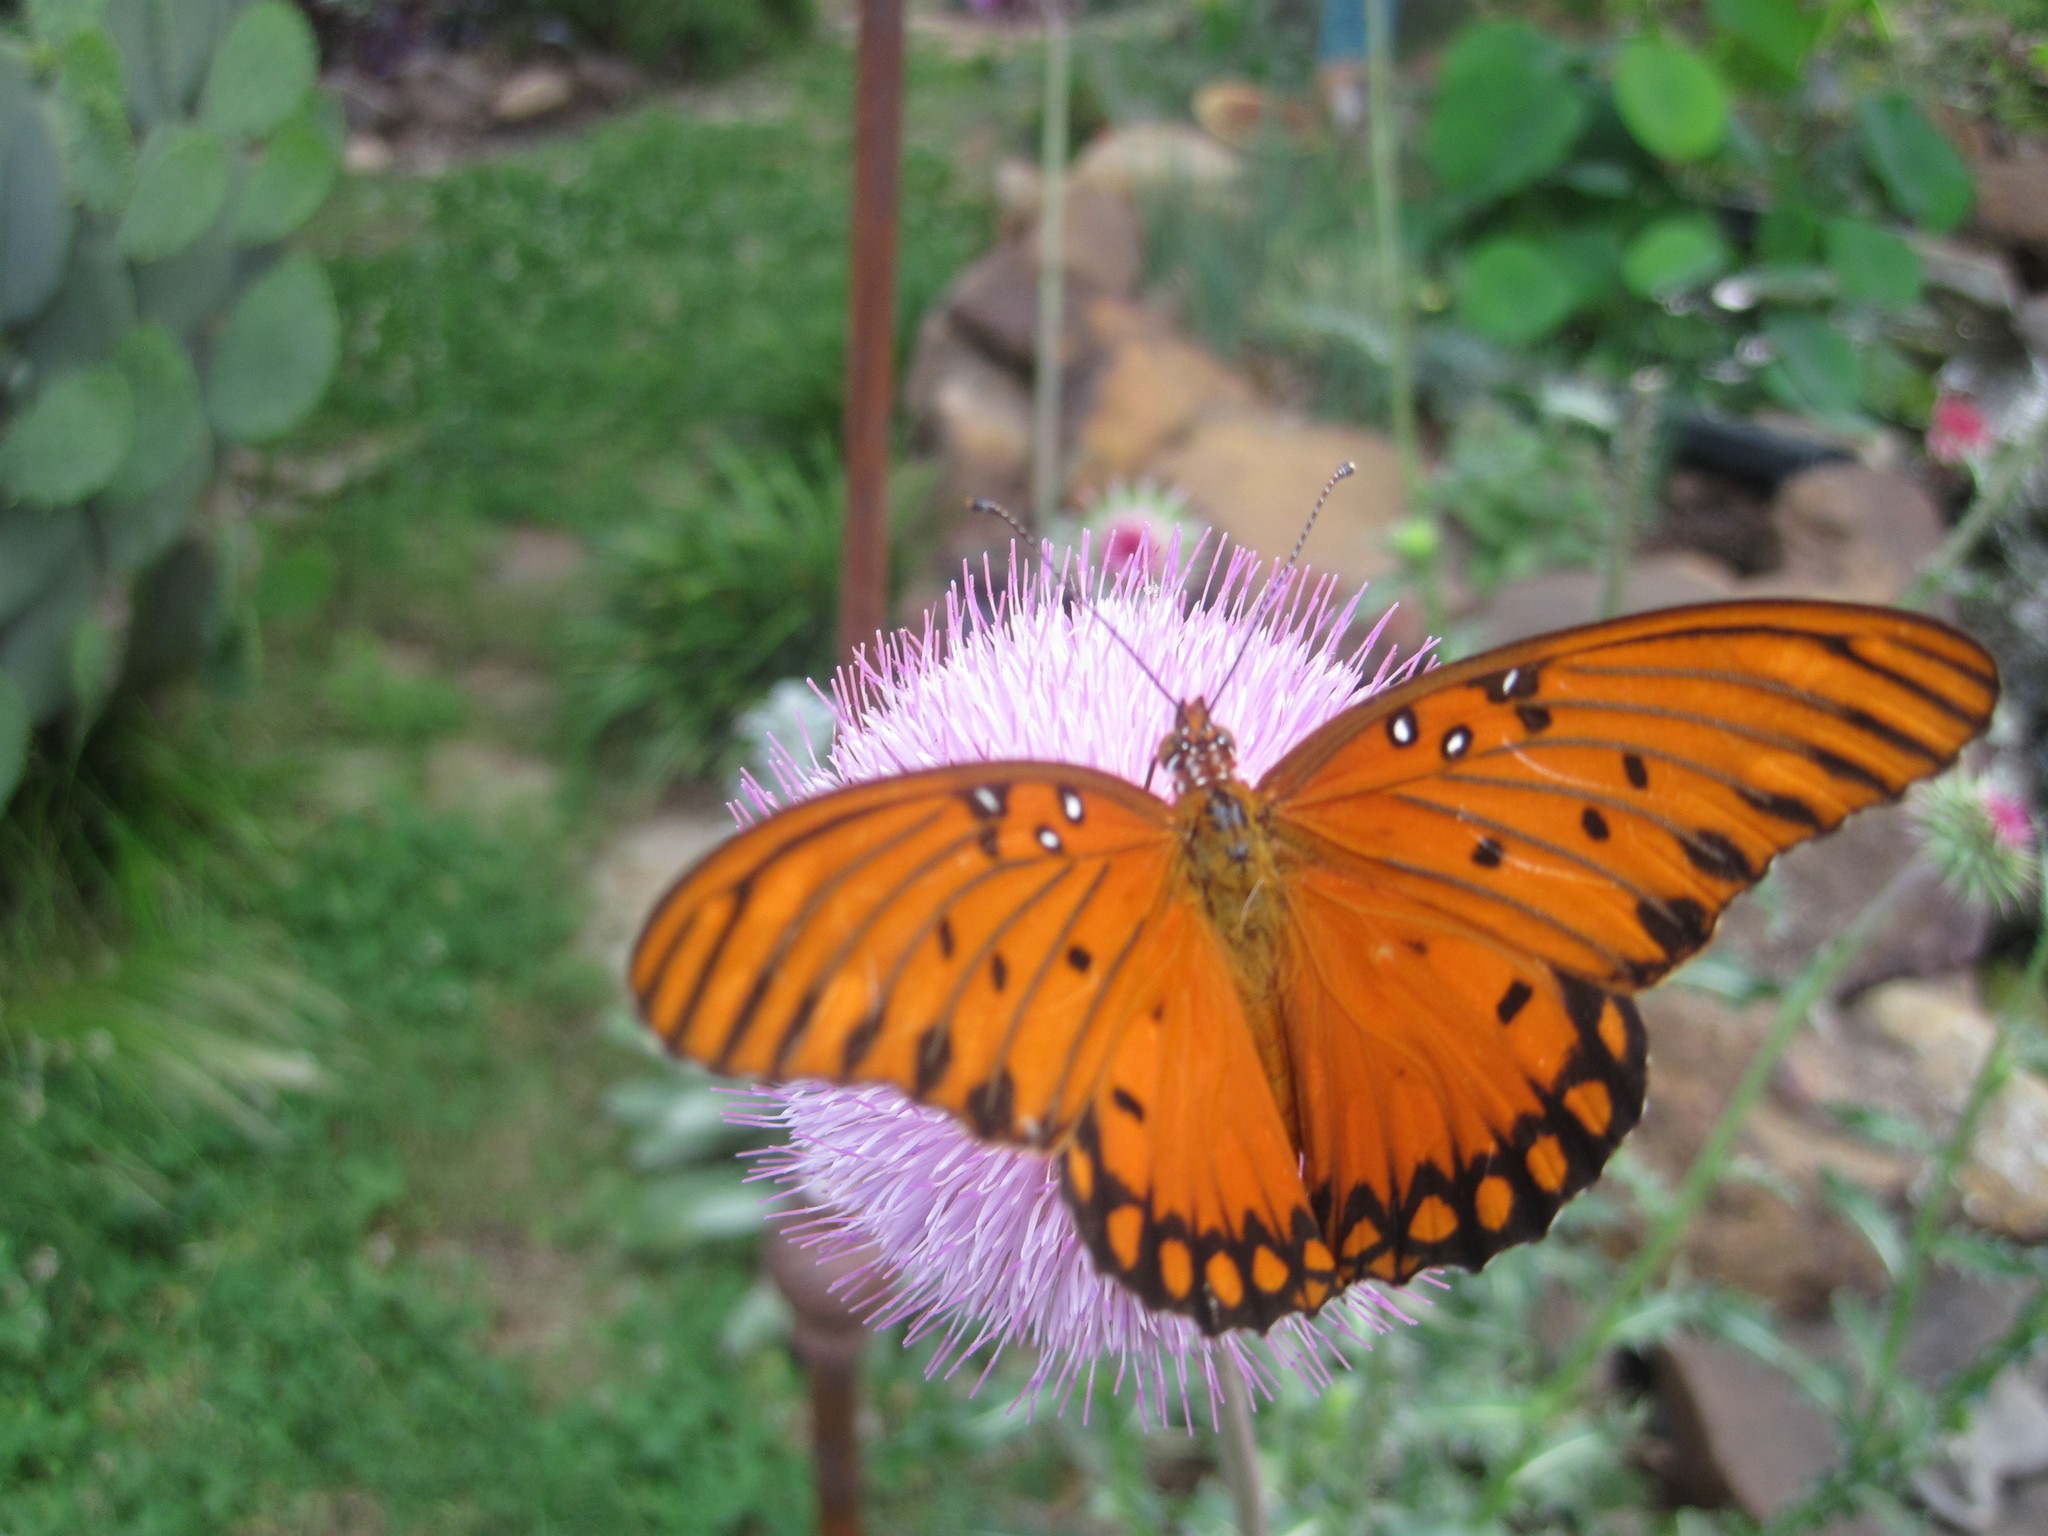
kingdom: Animalia
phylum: Arthropoda
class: Insecta
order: Lepidoptera
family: Nymphalidae
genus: Dione
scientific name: Dione vanillae
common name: Gulf fritillary
